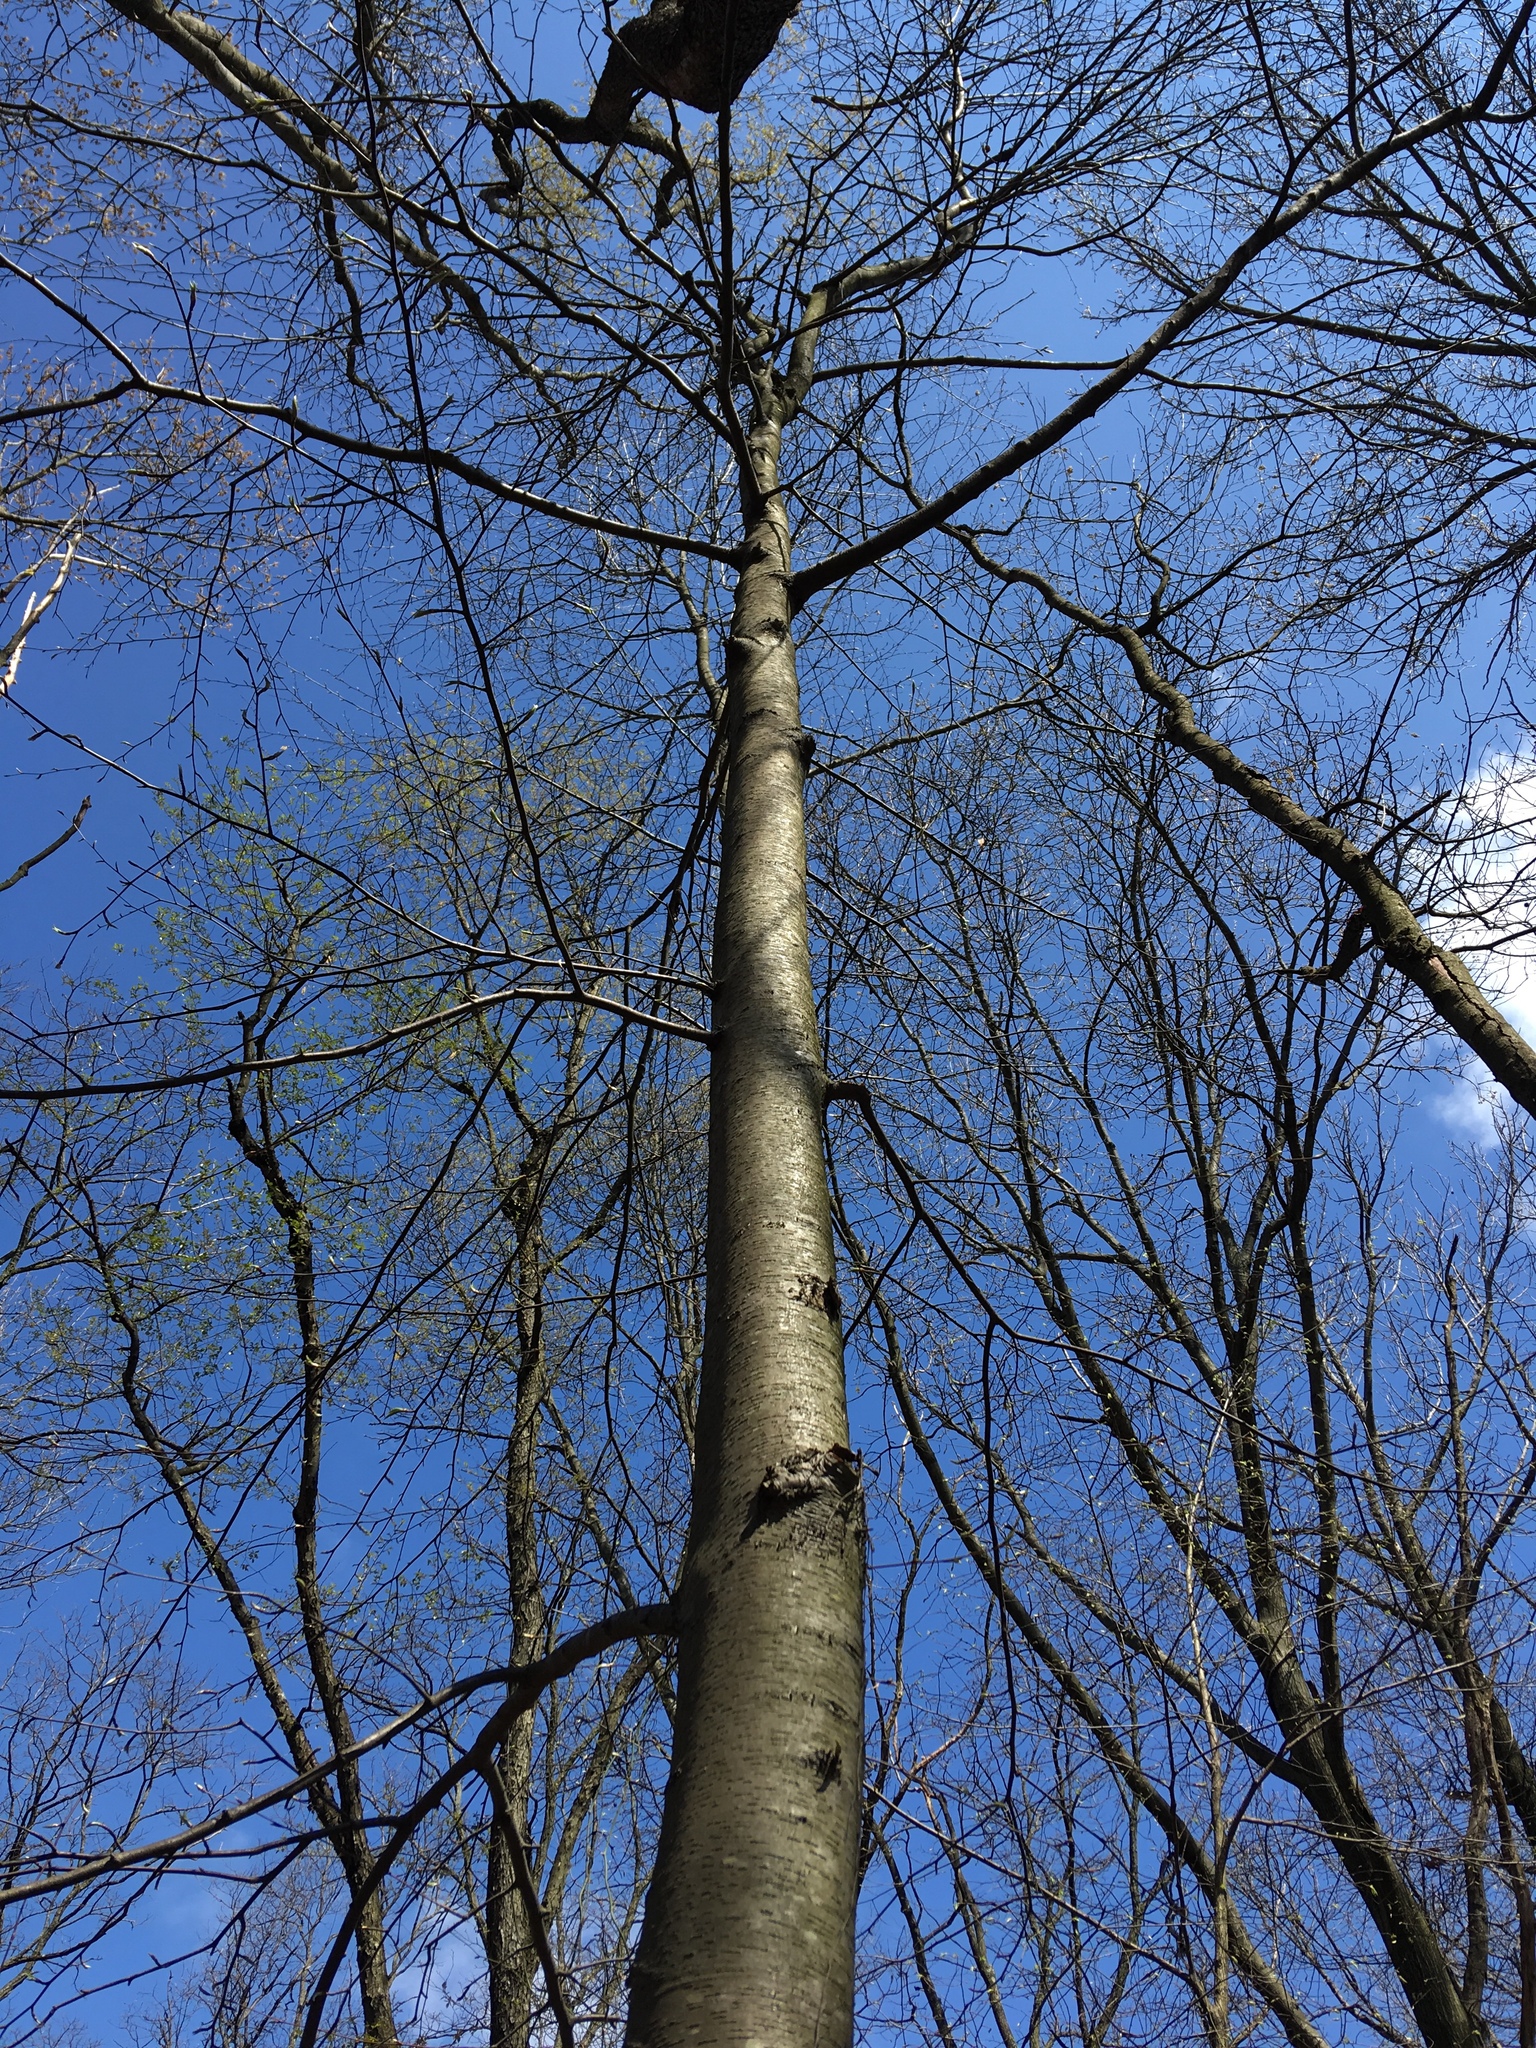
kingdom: Plantae
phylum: Tracheophyta
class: Magnoliopsida
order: Fagales
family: Betulaceae
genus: Betula
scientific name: Betula lenta
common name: Black birch
